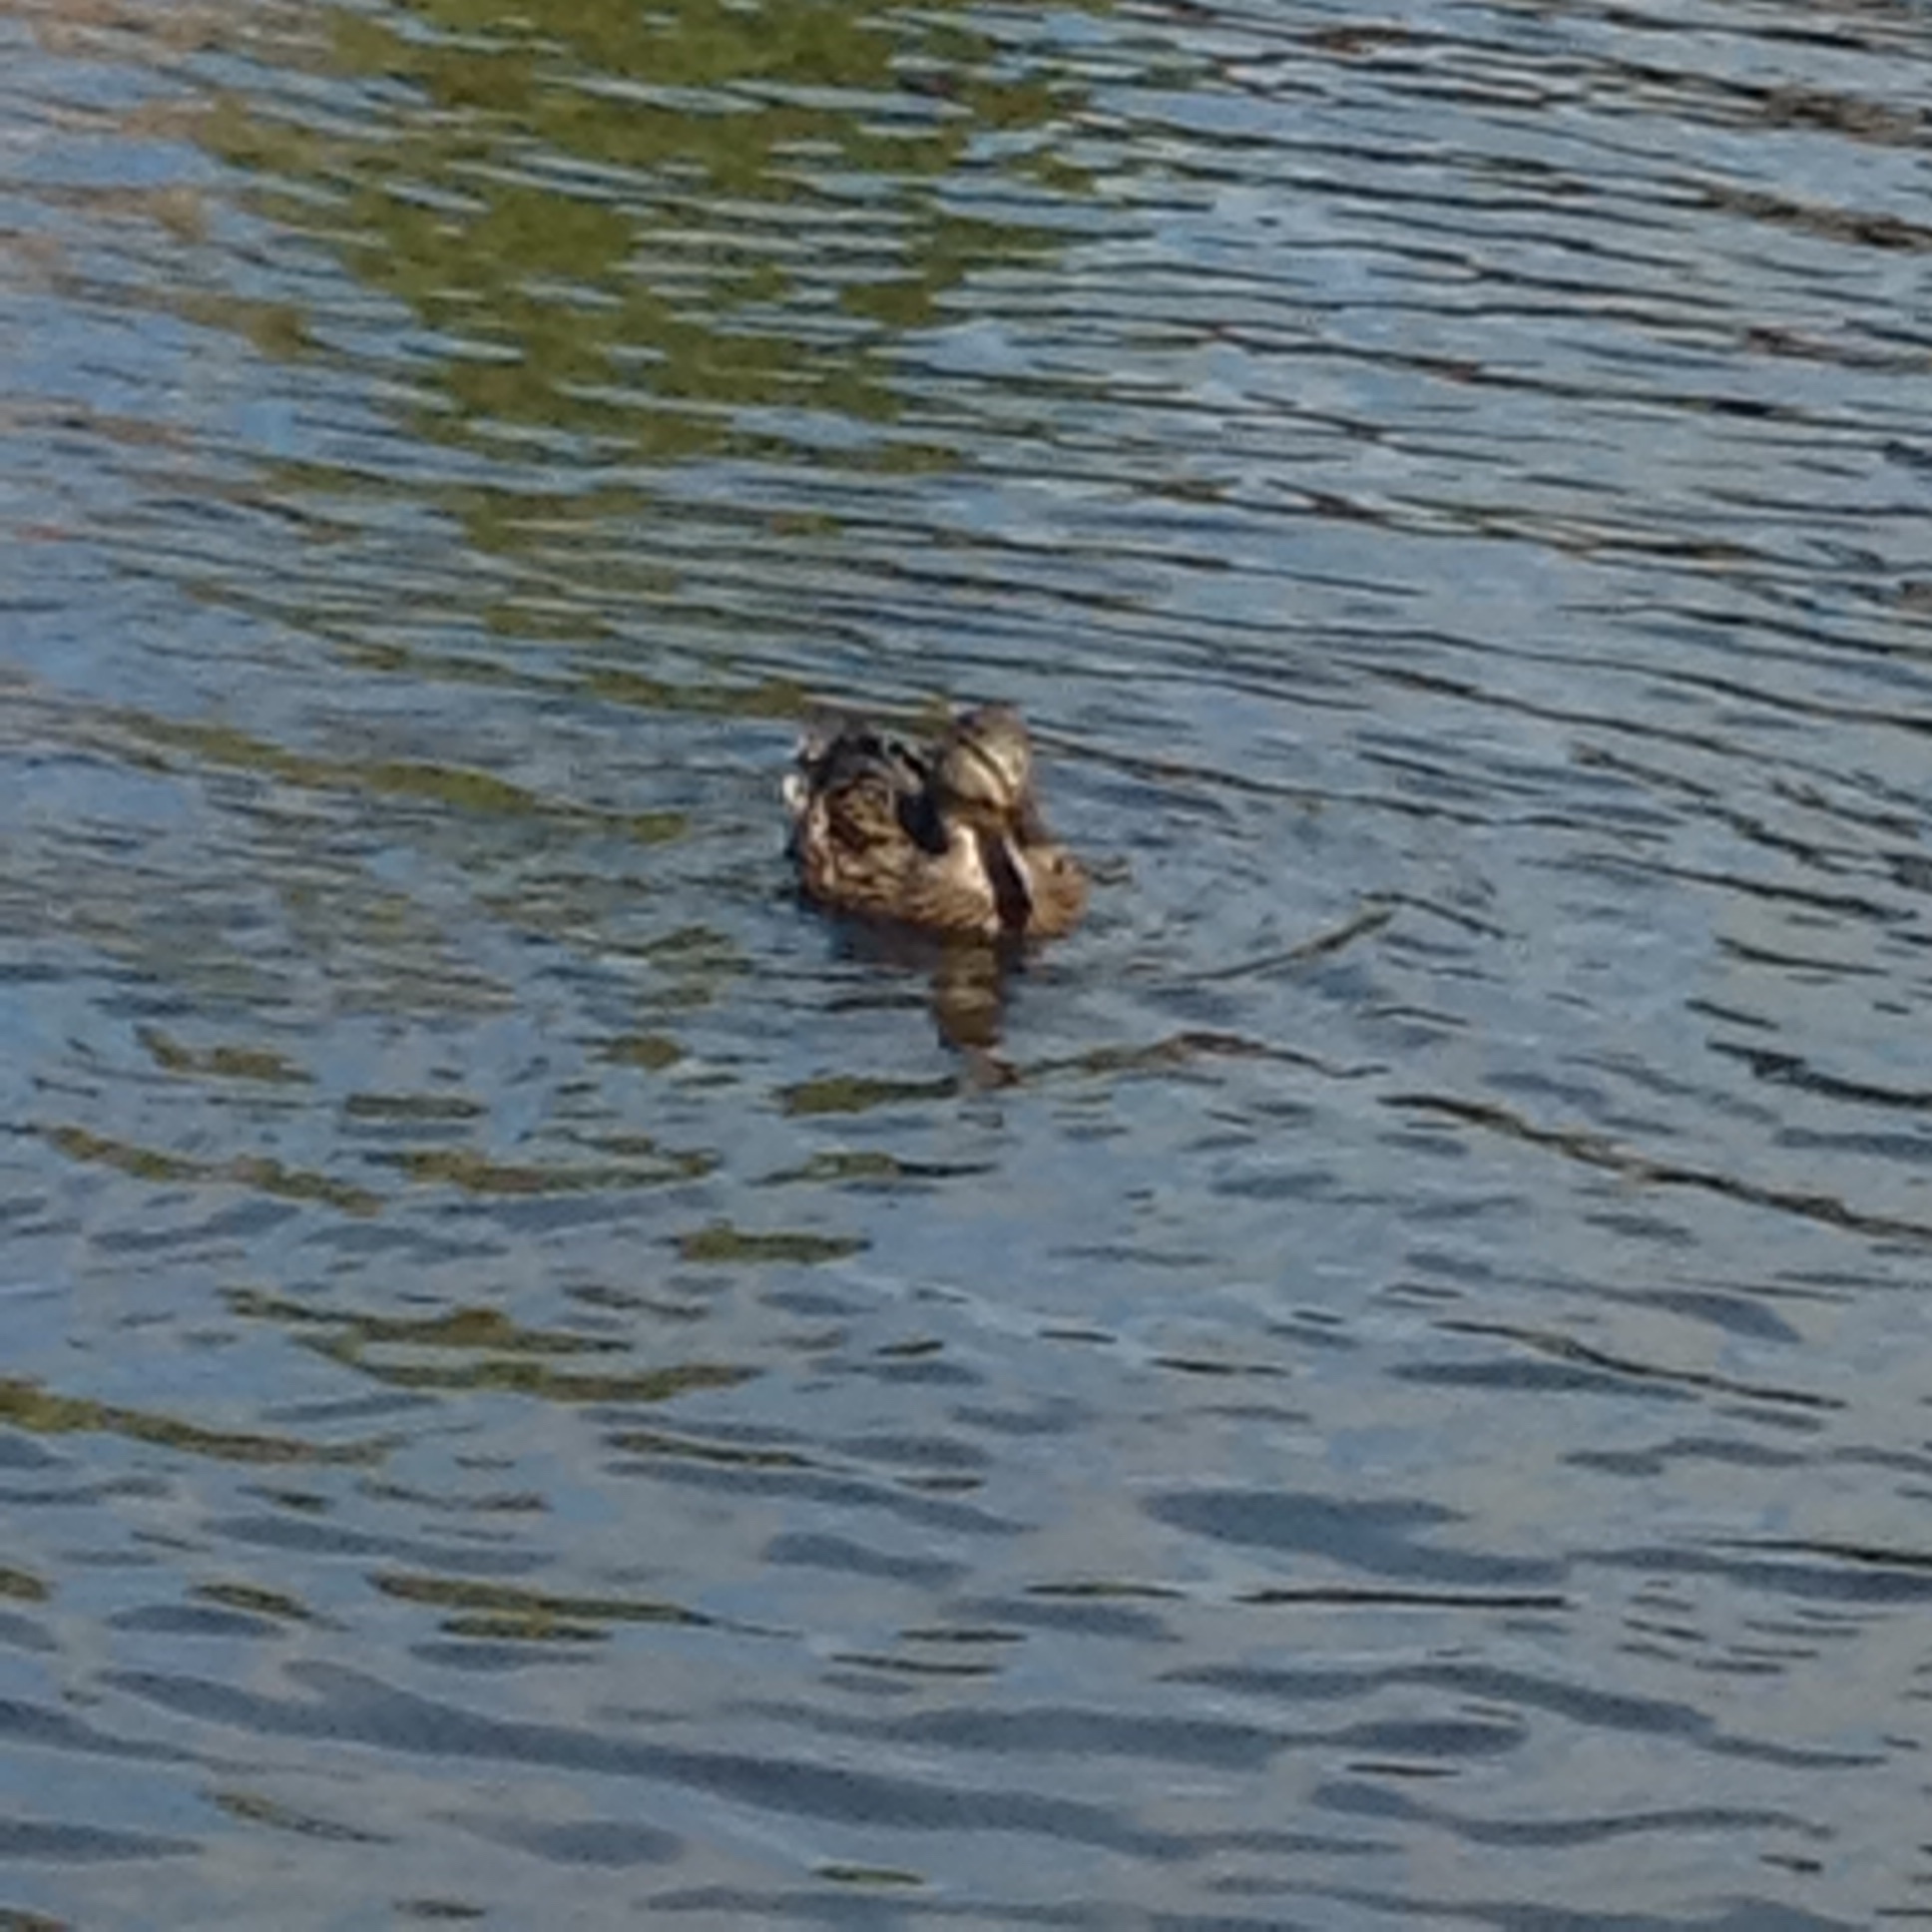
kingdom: Animalia
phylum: Chordata
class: Aves
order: Anseriformes
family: Anatidae
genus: Anas
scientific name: Anas platyrhynchos
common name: Mallard
